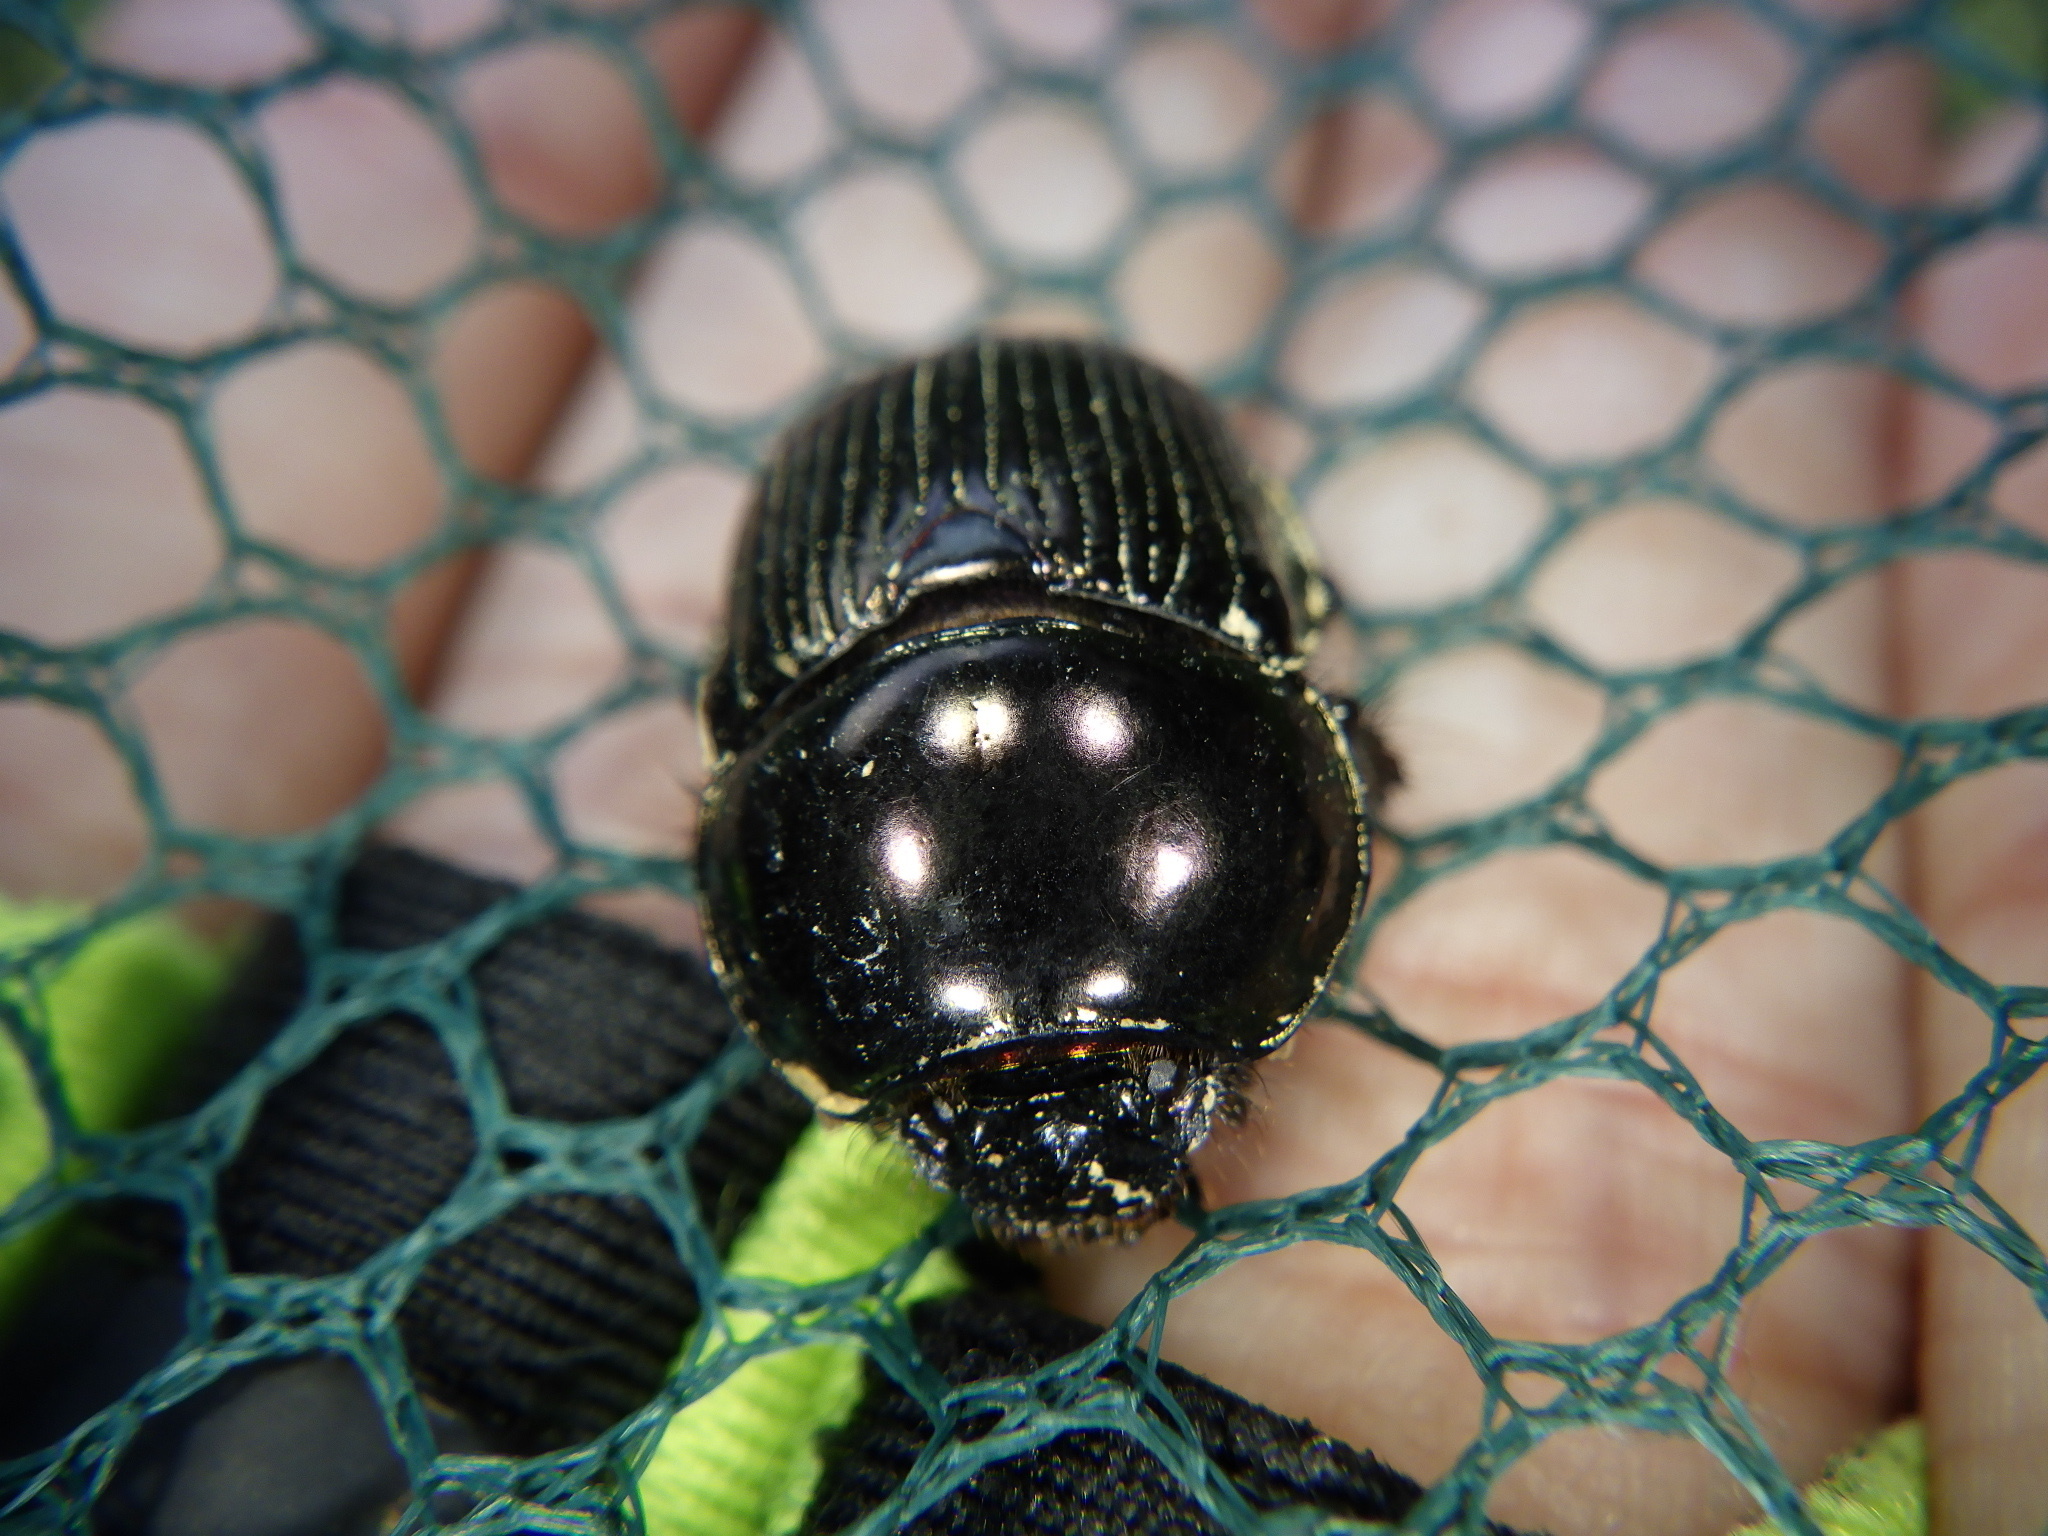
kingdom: Animalia
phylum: Arthropoda
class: Insecta
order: Coleoptera
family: Geotrupidae
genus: Phelotrupes
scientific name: Phelotrupes laevistriatus
